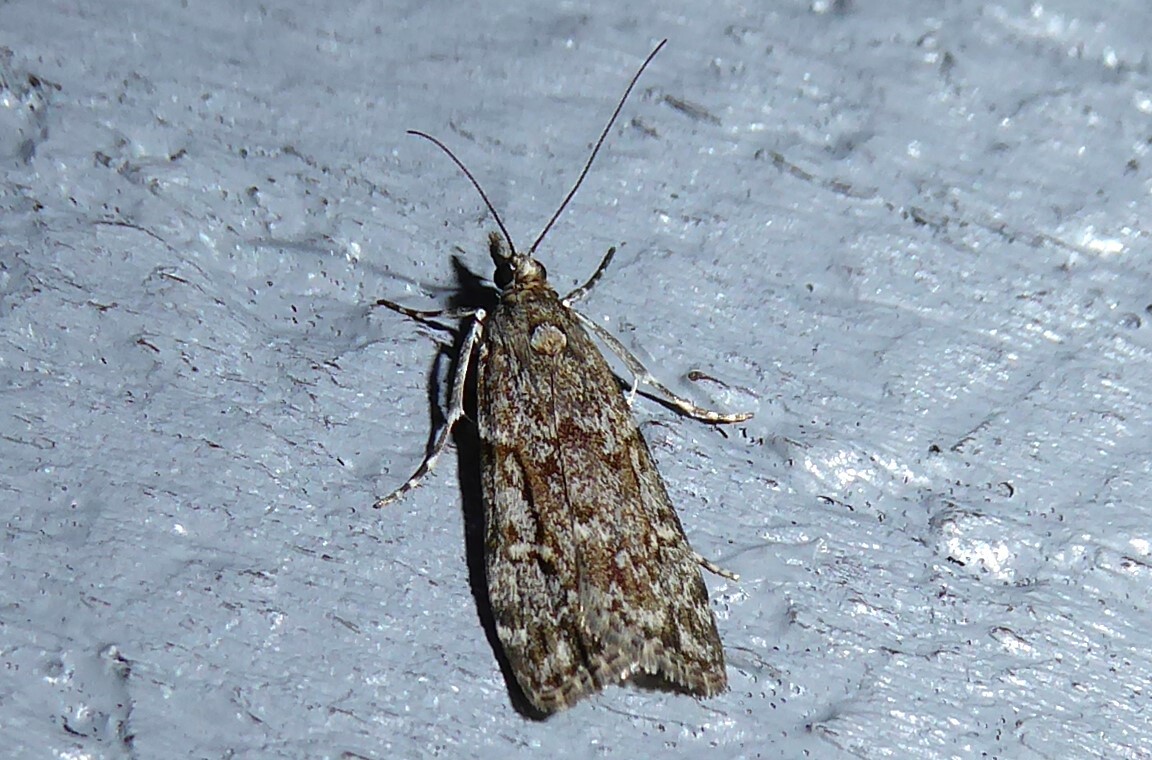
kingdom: Animalia
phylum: Arthropoda
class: Insecta
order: Lepidoptera
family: Crambidae
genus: Eudonia
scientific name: Eudonia cymatias
